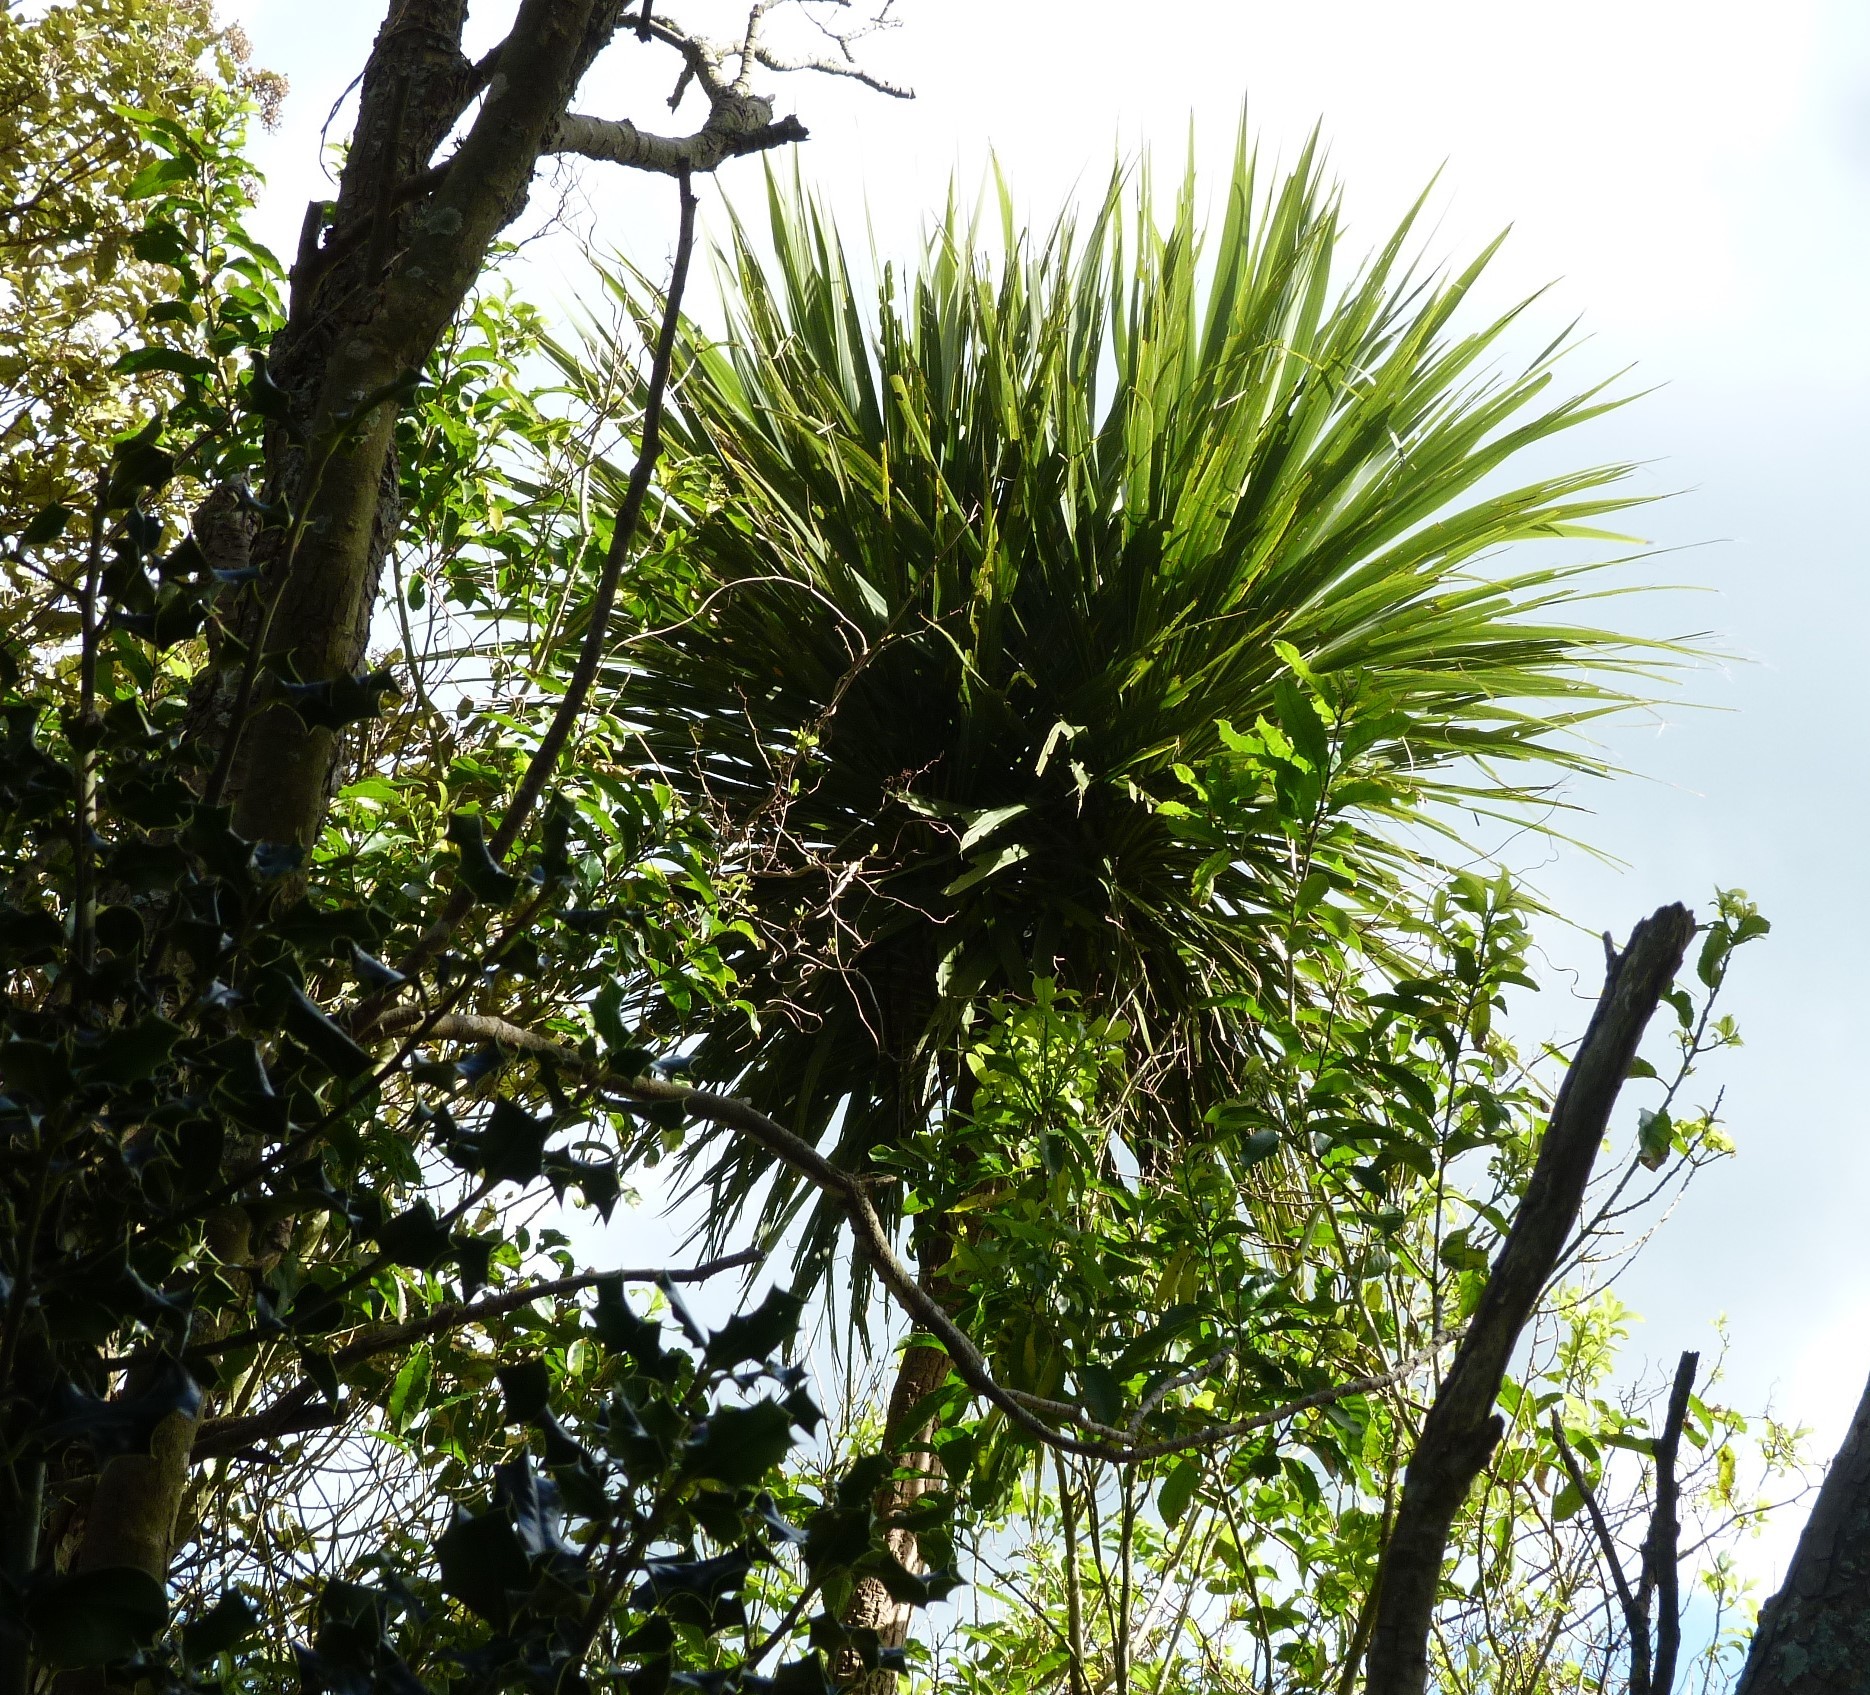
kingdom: Plantae
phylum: Tracheophyta
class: Liliopsida
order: Asparagales
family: Asparagaceae
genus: Cordyline
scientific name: Cordyline australis
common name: Cabbage-palm
